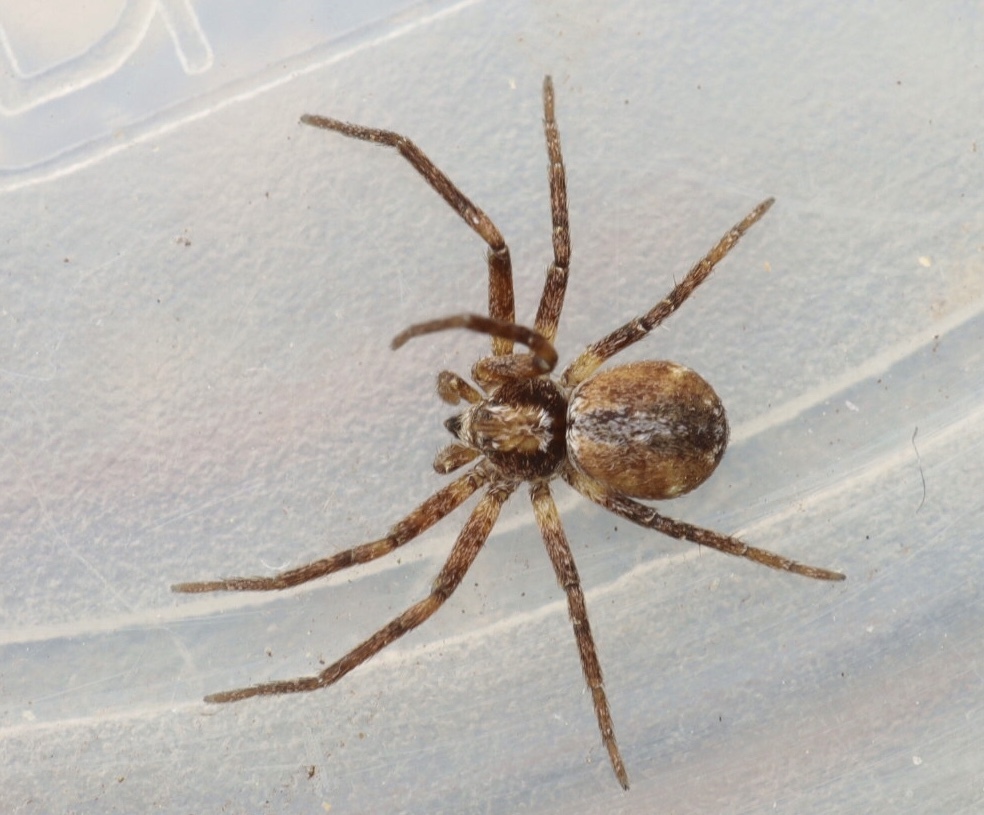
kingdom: Animalia
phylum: Arthropoda
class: Arachnida
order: Araneae
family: Philodromidae
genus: Philodromus
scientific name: Philodromus collinus
